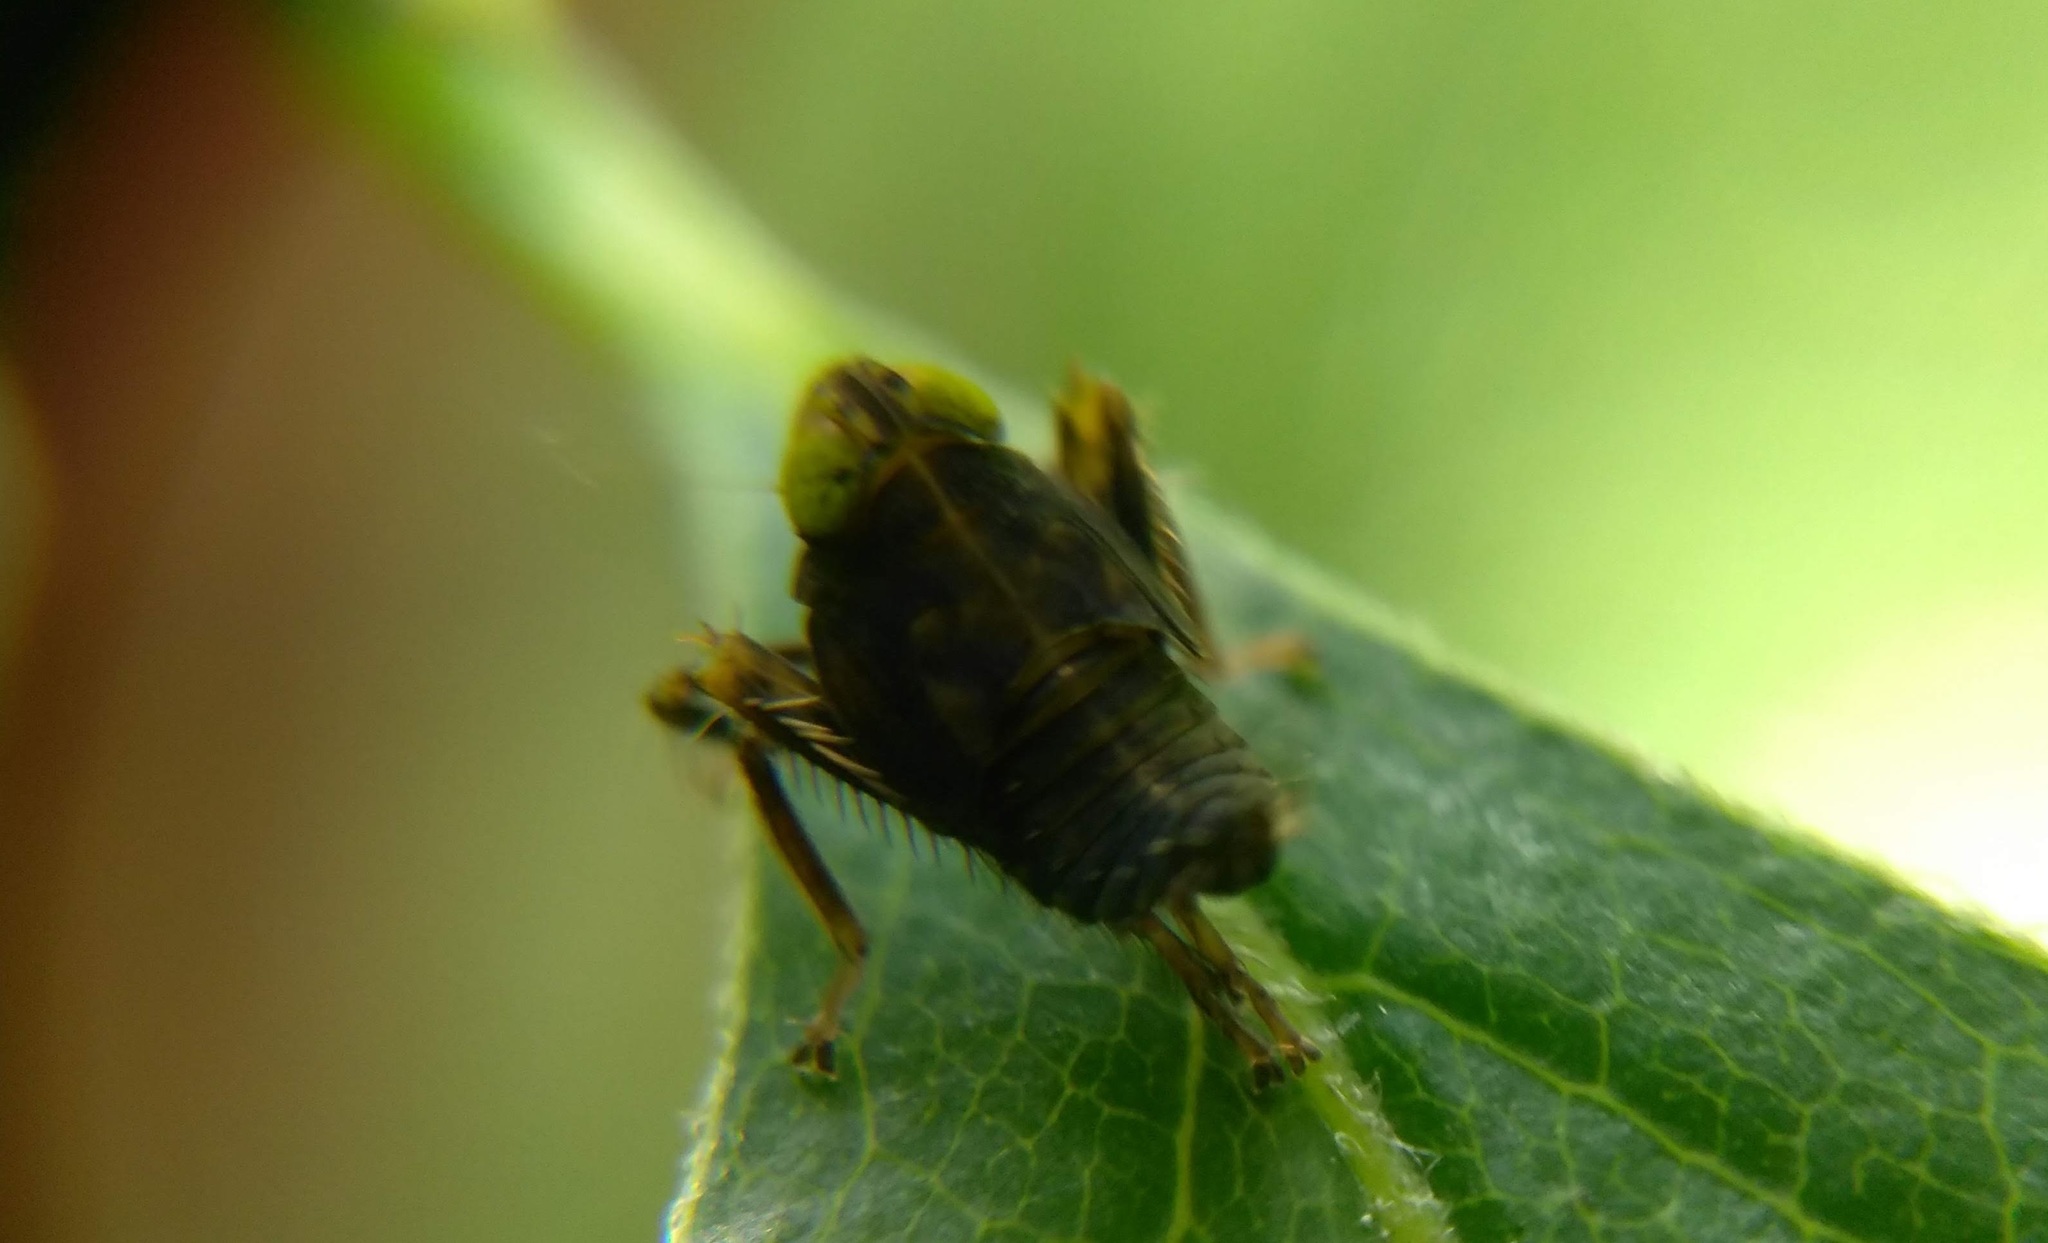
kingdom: Animalia
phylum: Arthropoda
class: Insecta
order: Hemiptera
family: Cicadellidae
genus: Jikradia
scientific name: Jikradia olitoria
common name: Coppery leafhopper
